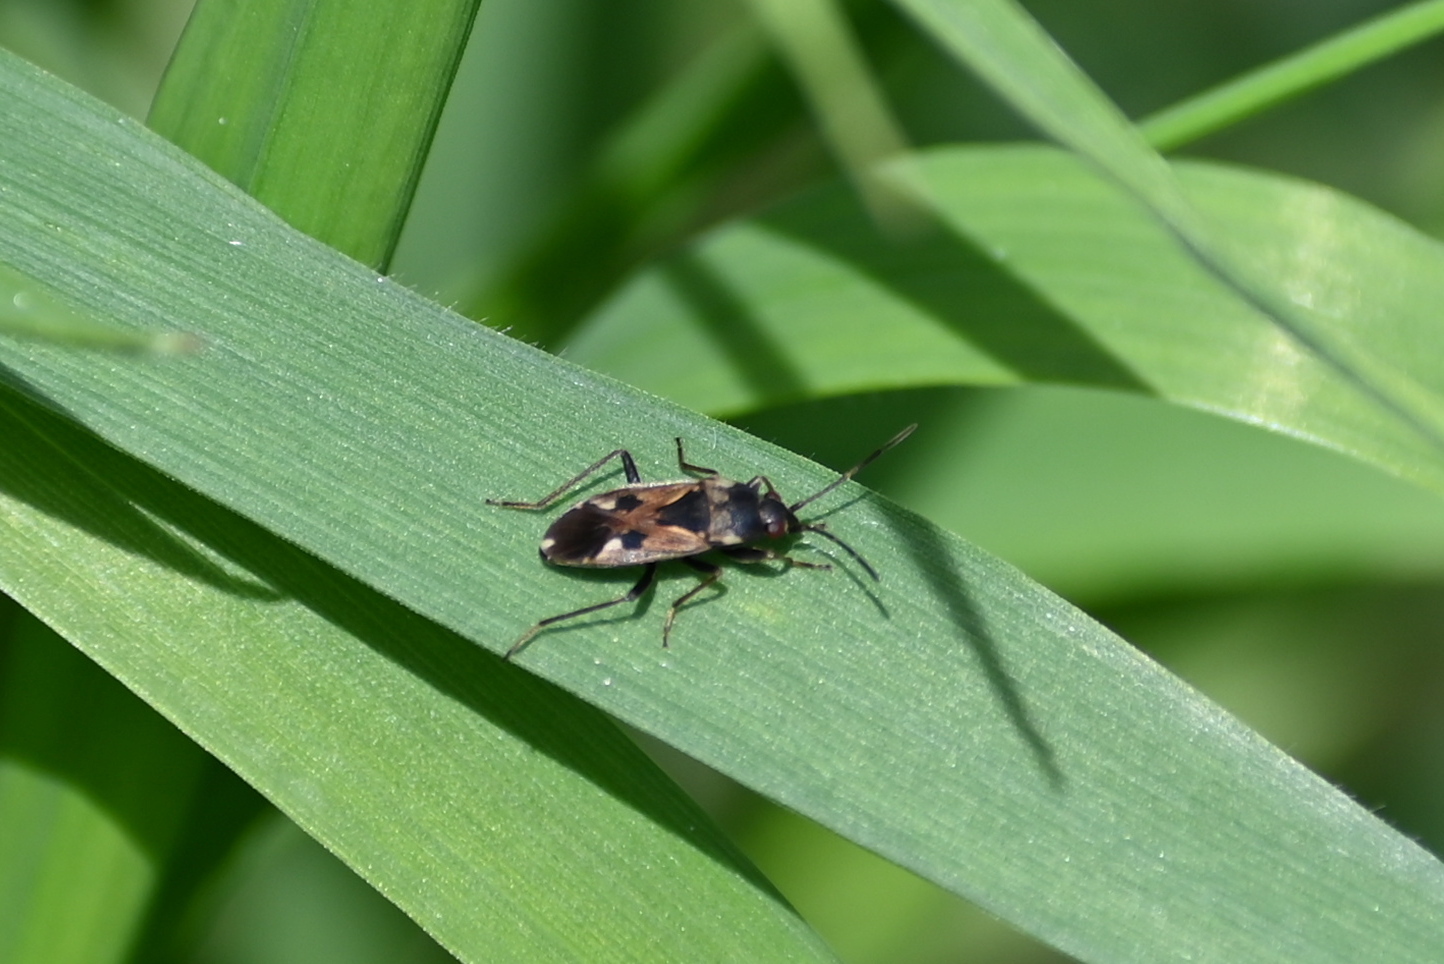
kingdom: Animalia
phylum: Arthropoda
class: Insecta
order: Hemiptera
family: Rhyparochromidae
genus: Rhyparochromus
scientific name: Rhyparochromus vulgaris
